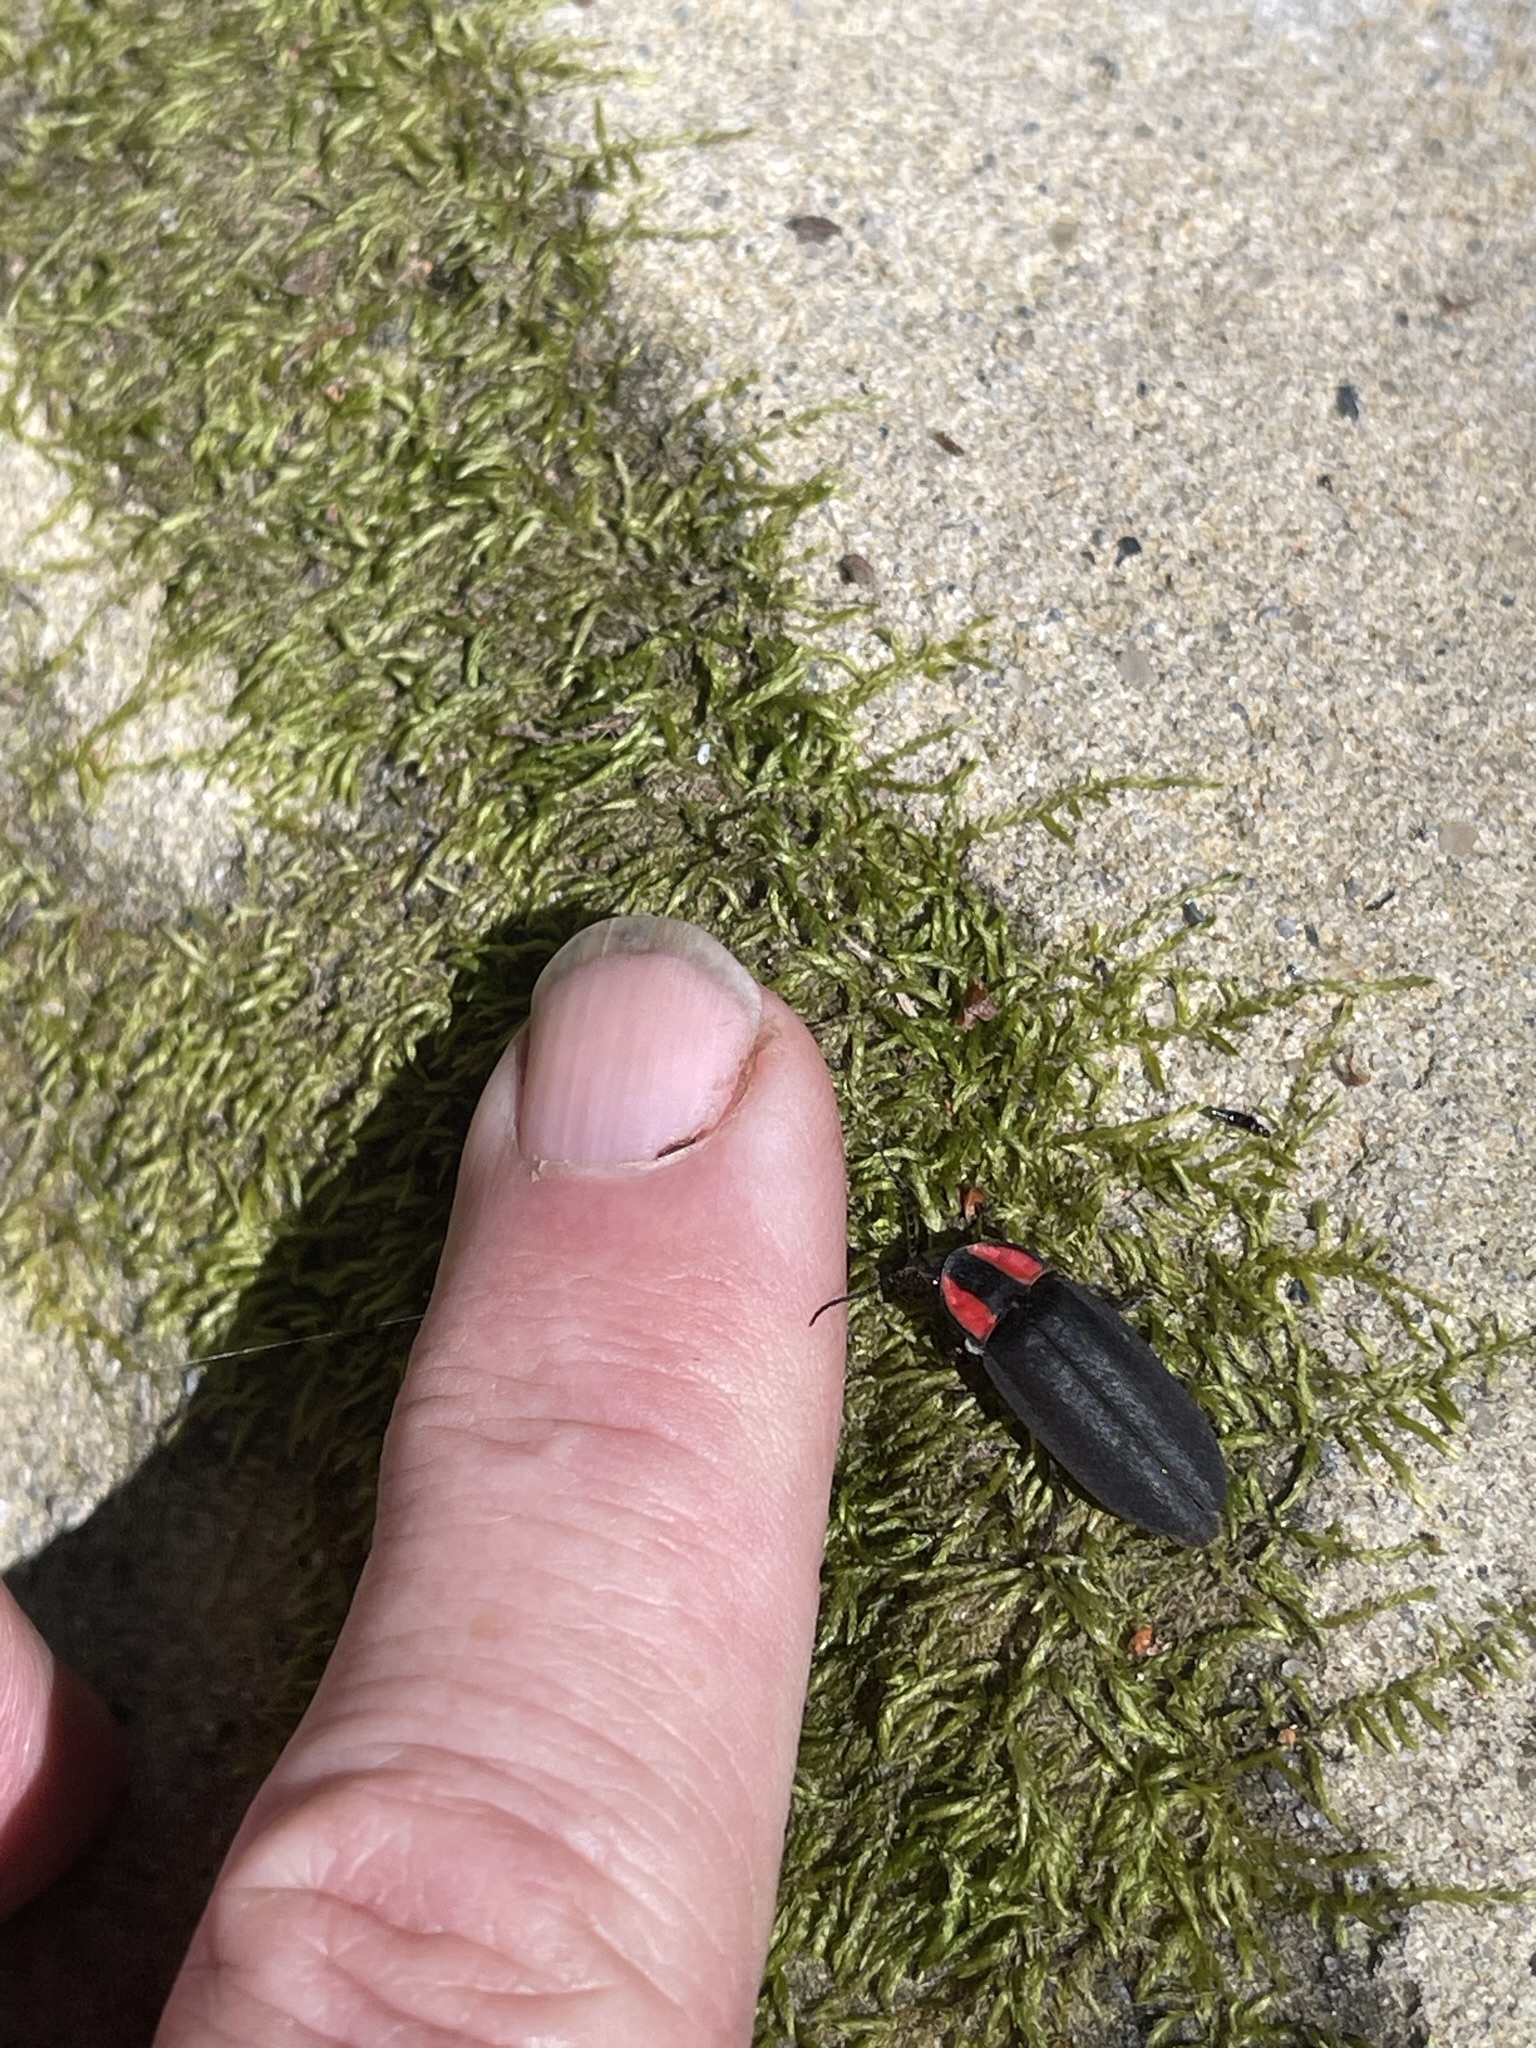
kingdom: Animalia
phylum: Arthropoda
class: Insecta
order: Coleoptera
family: Lampyridae
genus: Ellychnia
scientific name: Ellychnia megista
